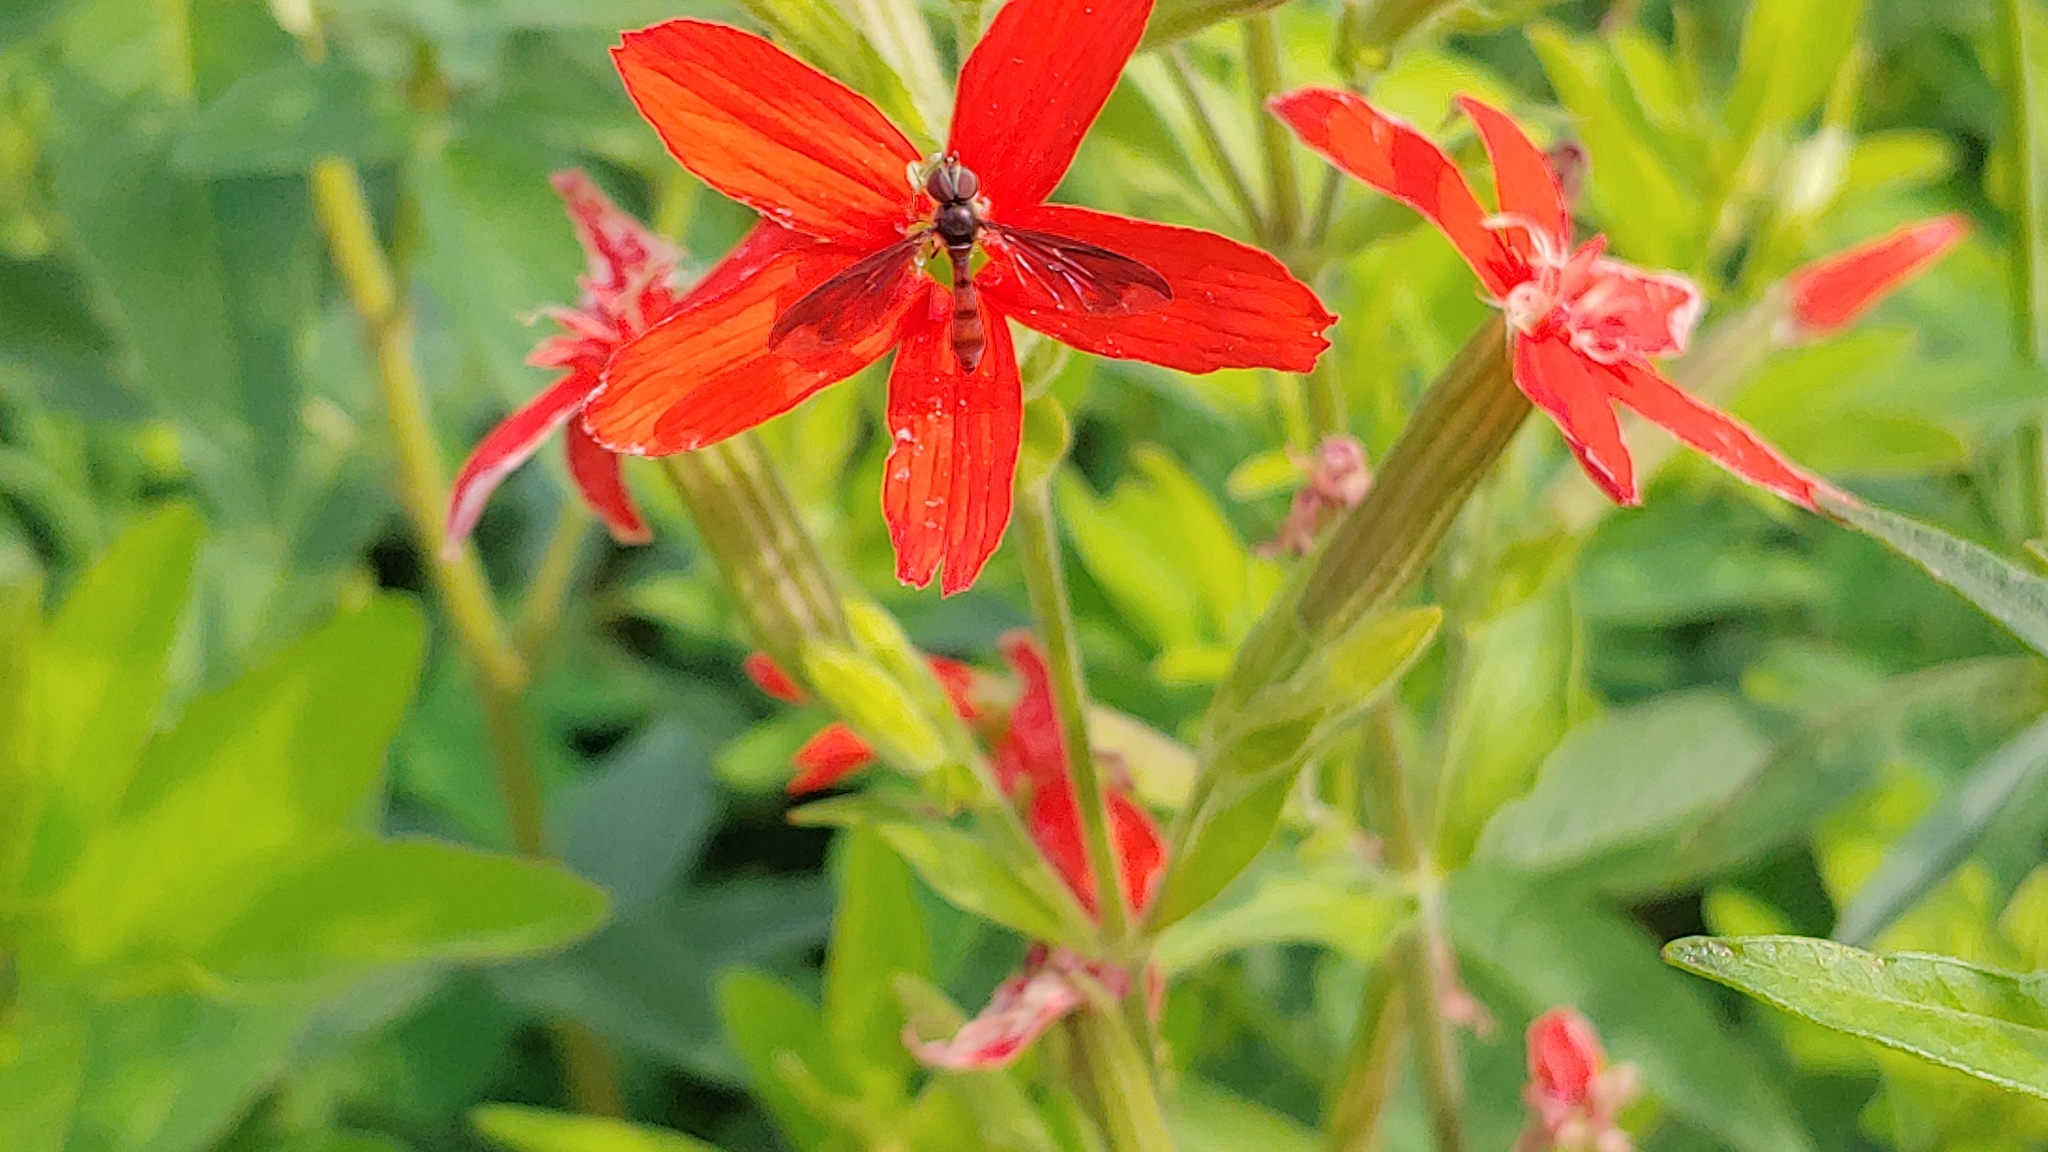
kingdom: Animalia
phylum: Arthropoda
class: Insecta
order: Diptera
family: Syrphidae
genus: Ocyptamus
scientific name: Ocyptamus fuscipennis
